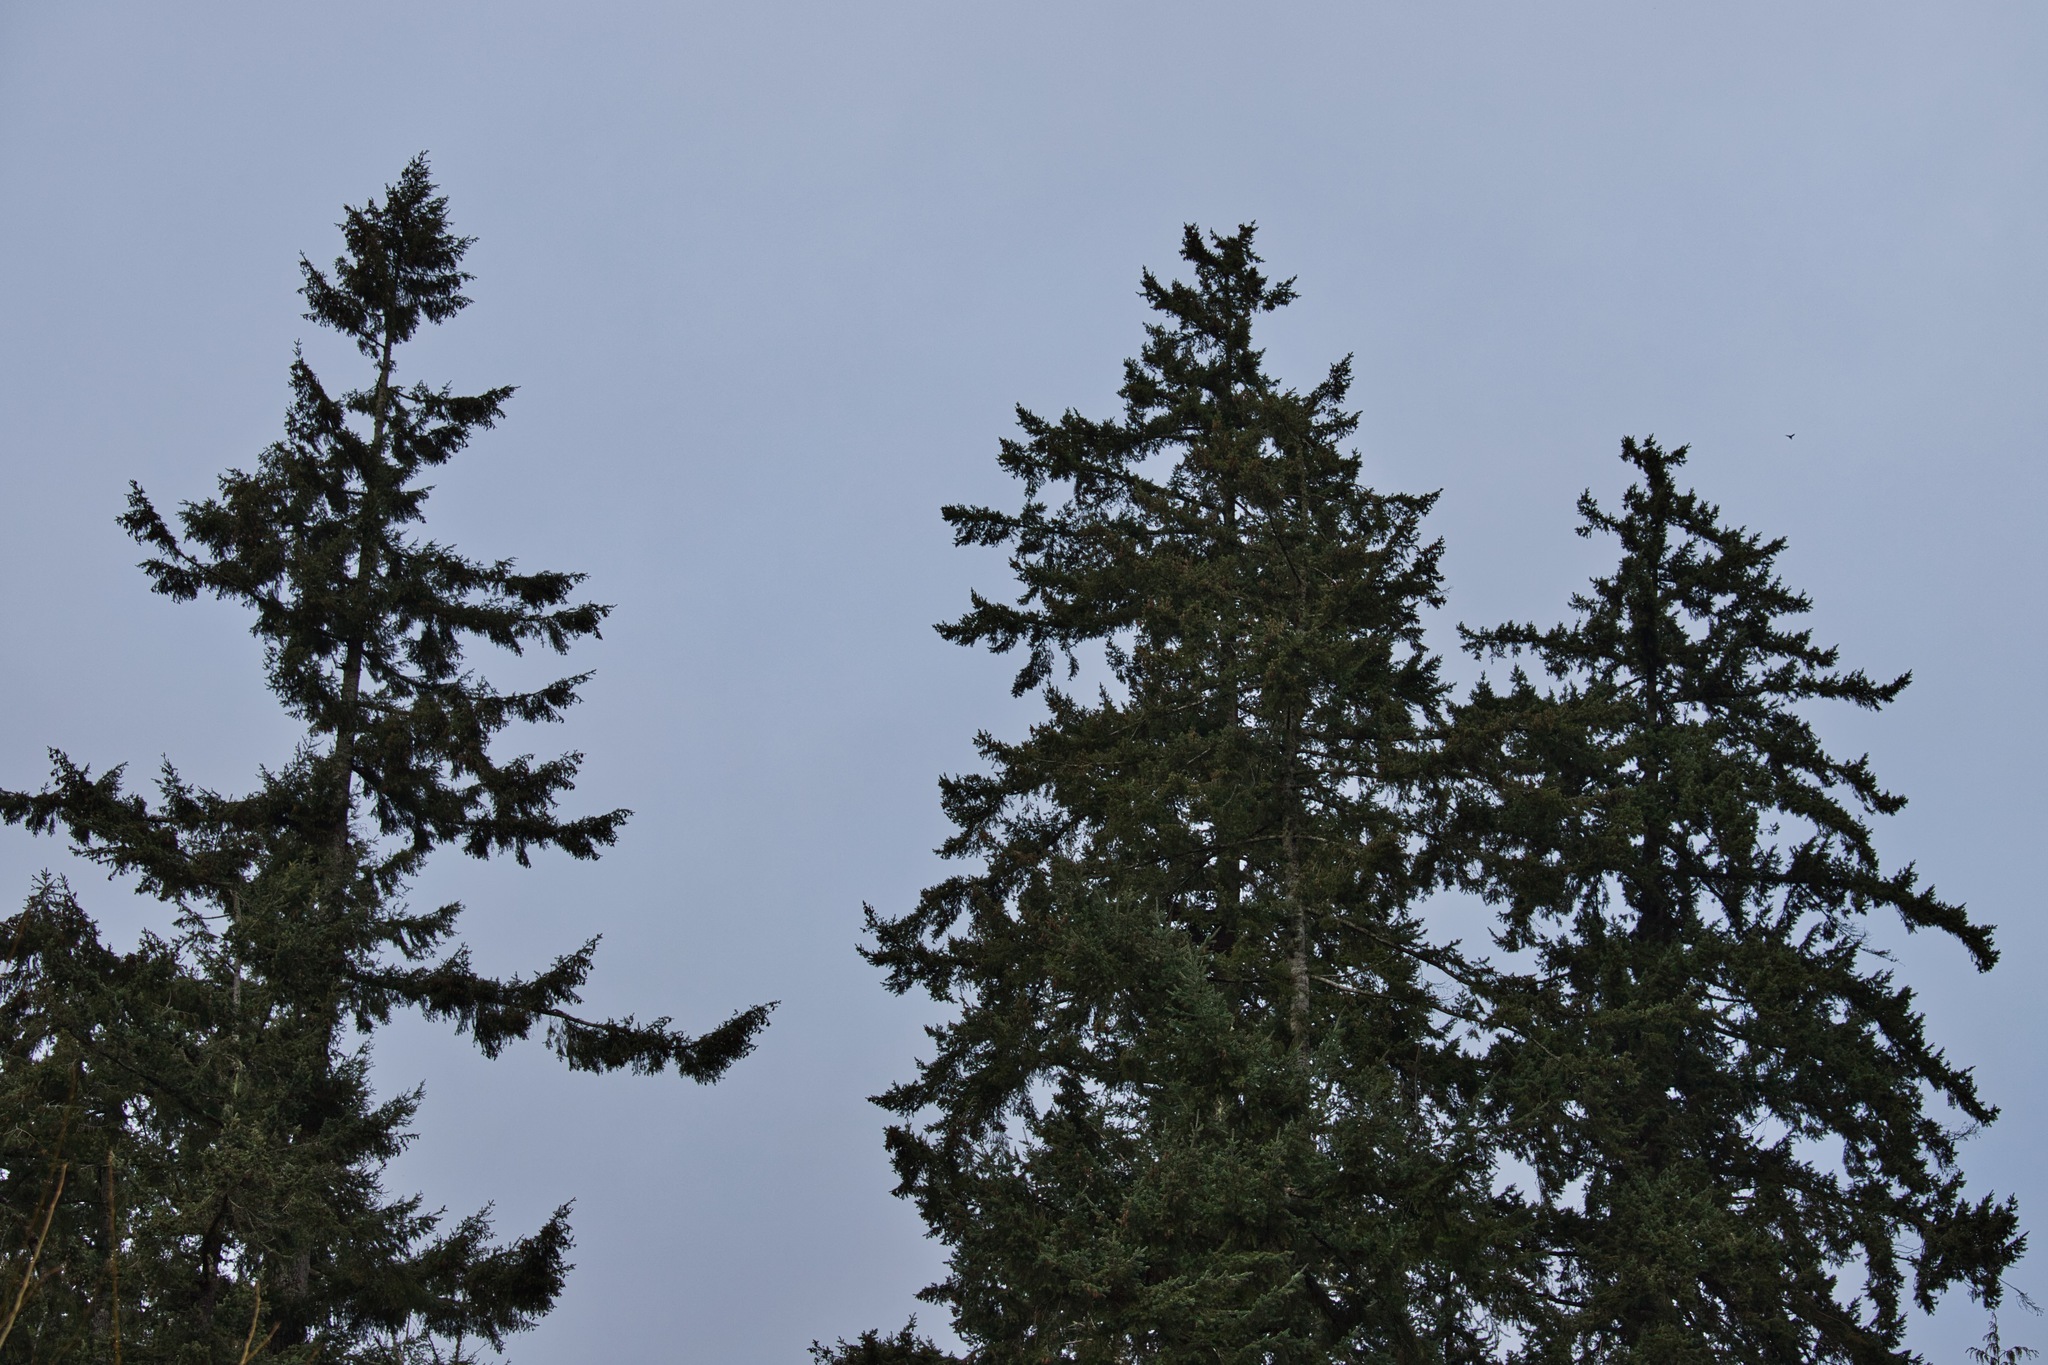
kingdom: Plantae
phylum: Tracheophyta
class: Pinopsida
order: Pinales
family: Pinaceae
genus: Pseudotsuga
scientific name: Pseudotsuga menziesii
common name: Douglas fir
